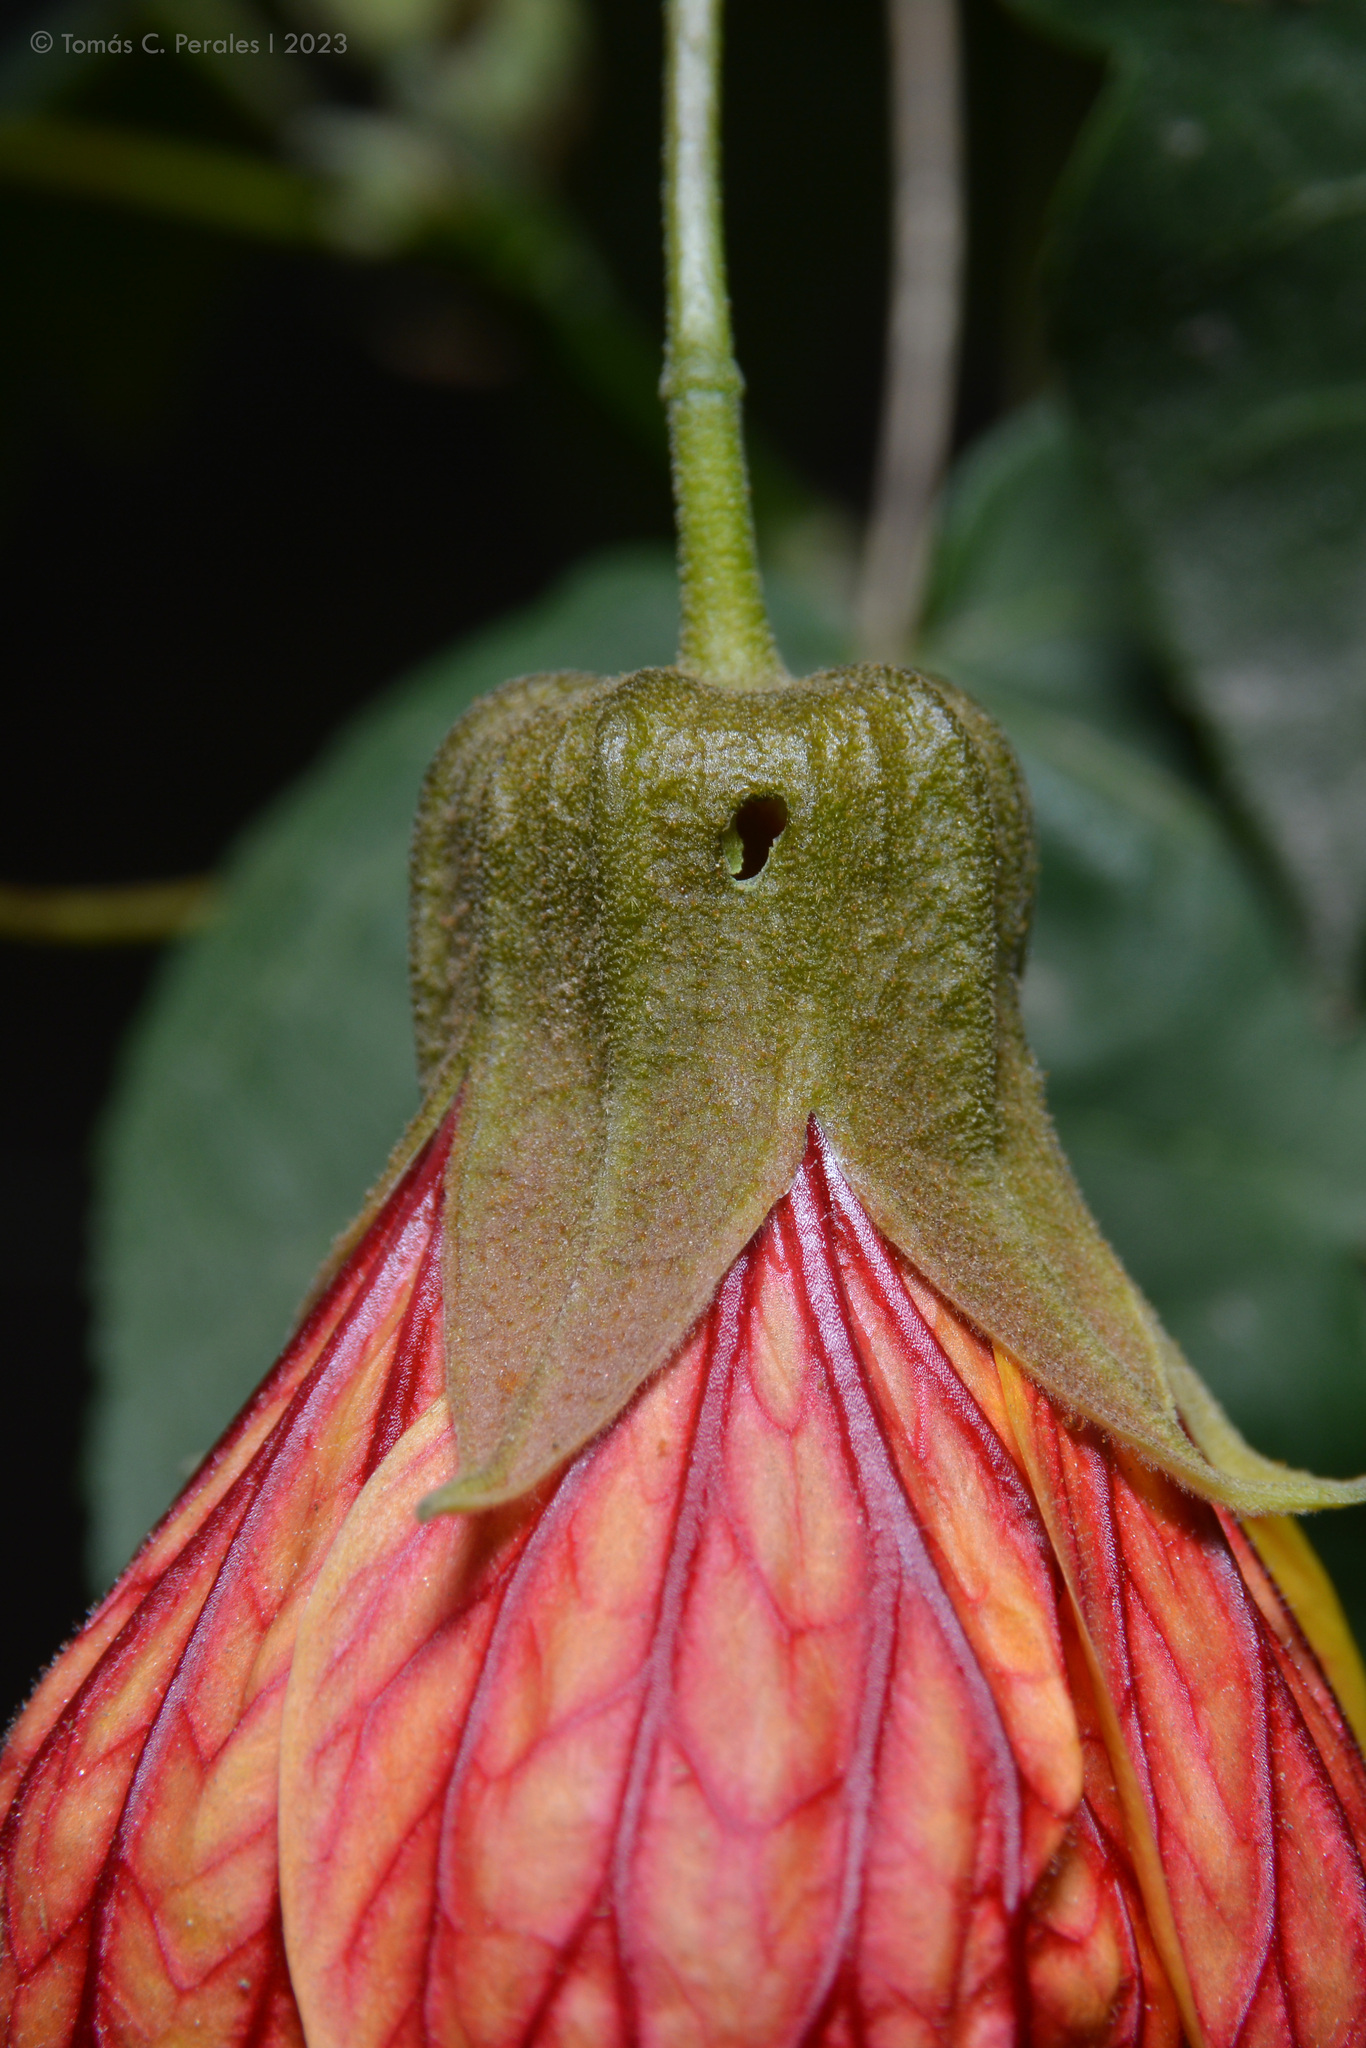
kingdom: Plantae
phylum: Tracheophyta
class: Magnoliopsida
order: Malvales
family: Malvaceae
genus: Callianthe
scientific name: Callianthe picta
